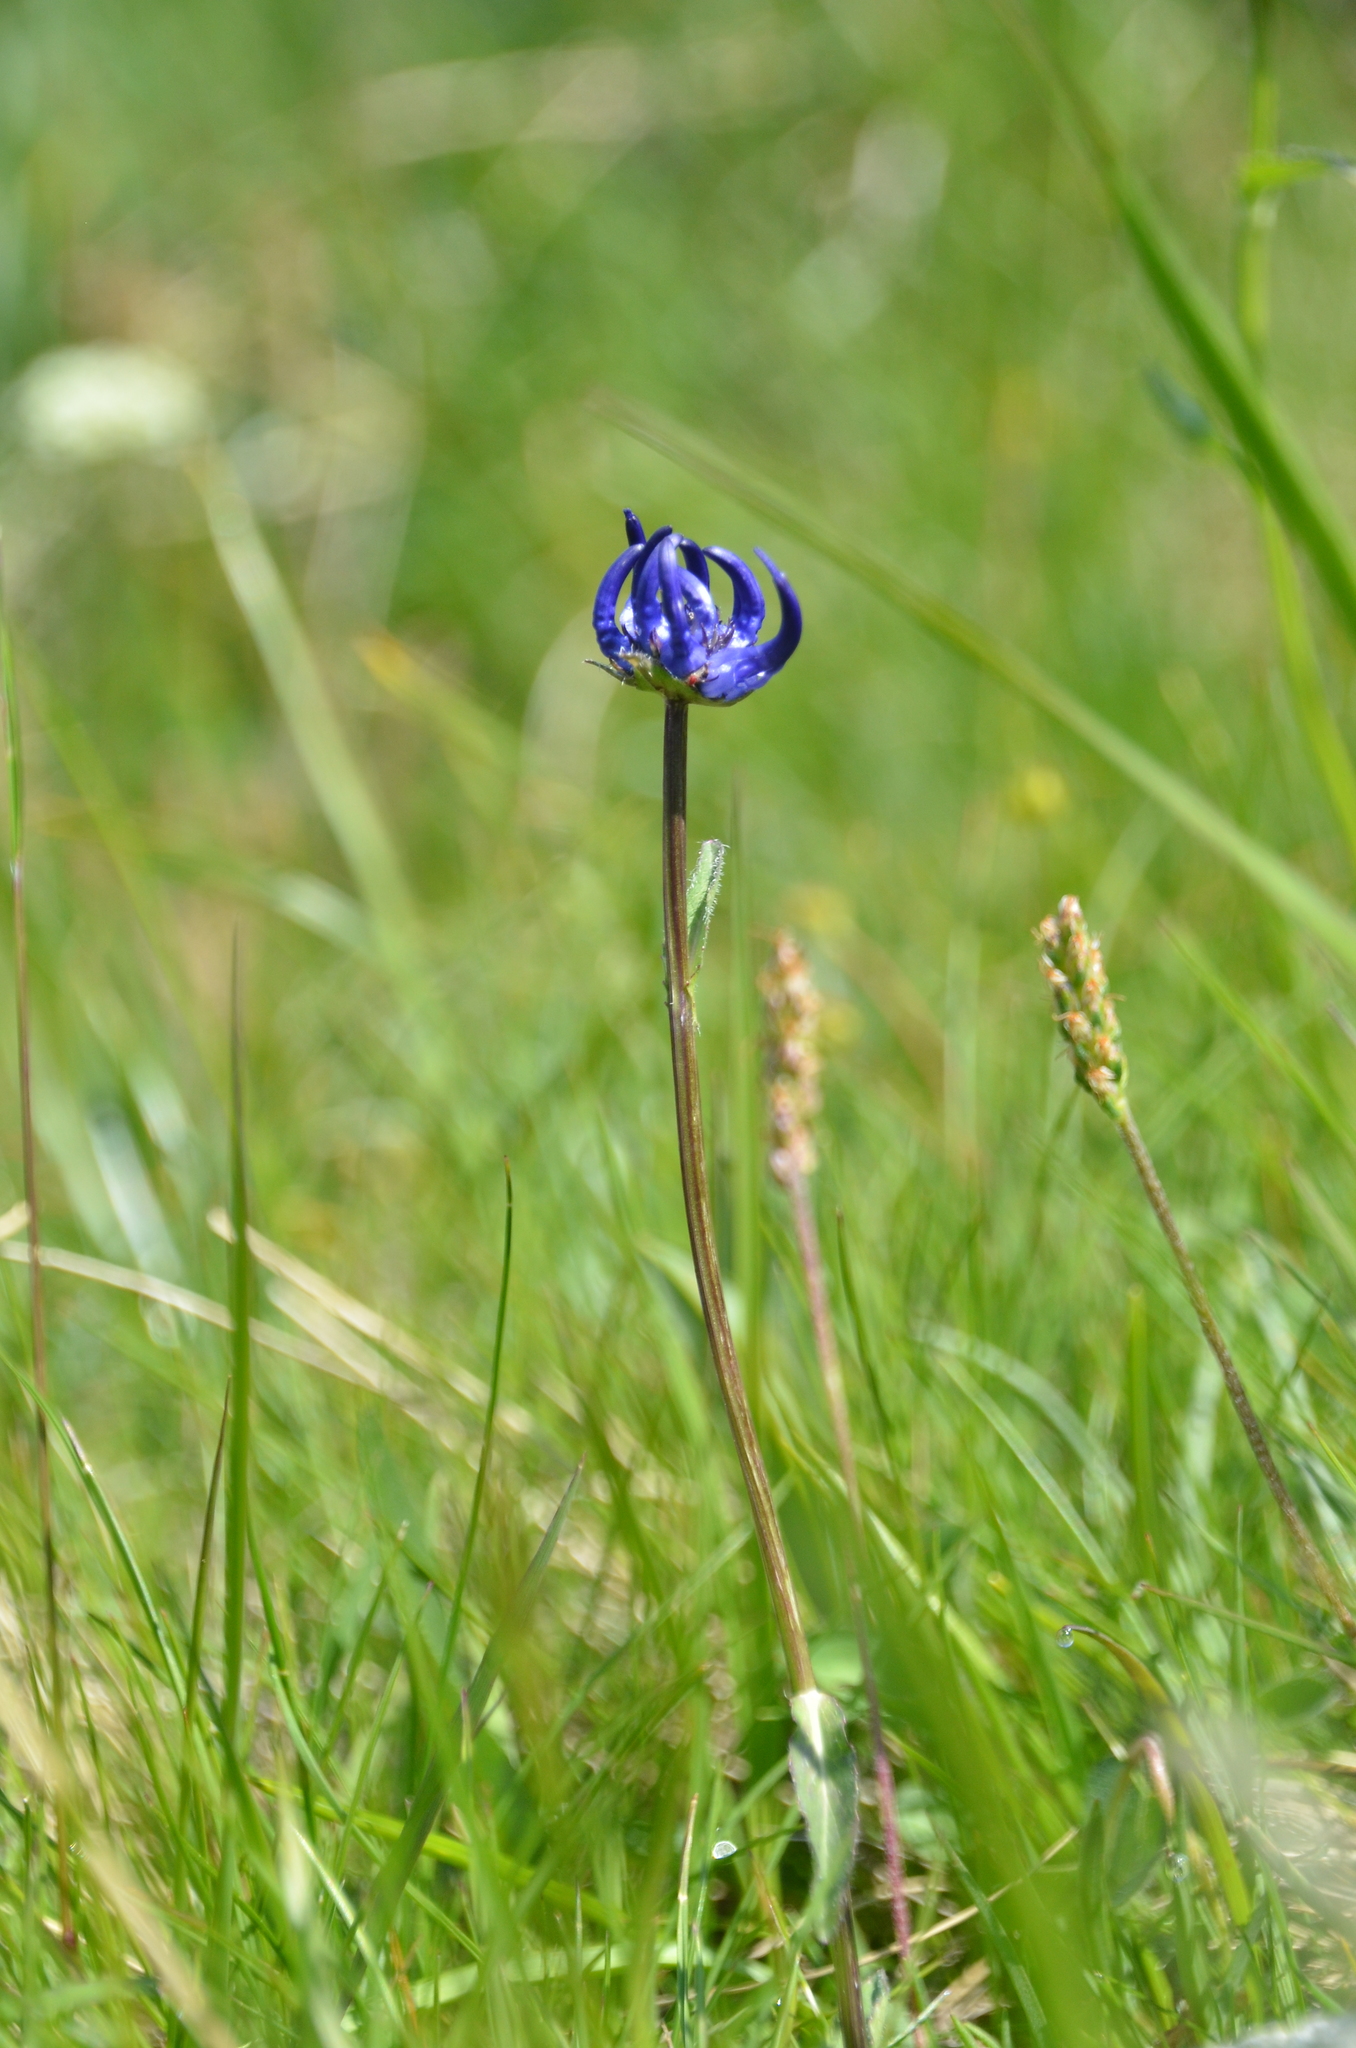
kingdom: Plantae
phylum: Tracheophyta
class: Magnoliopsida
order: Asterales
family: Campanulaceae
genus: Phyteuma
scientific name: Phyteuma orbiculare
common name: Round-headed rampion
